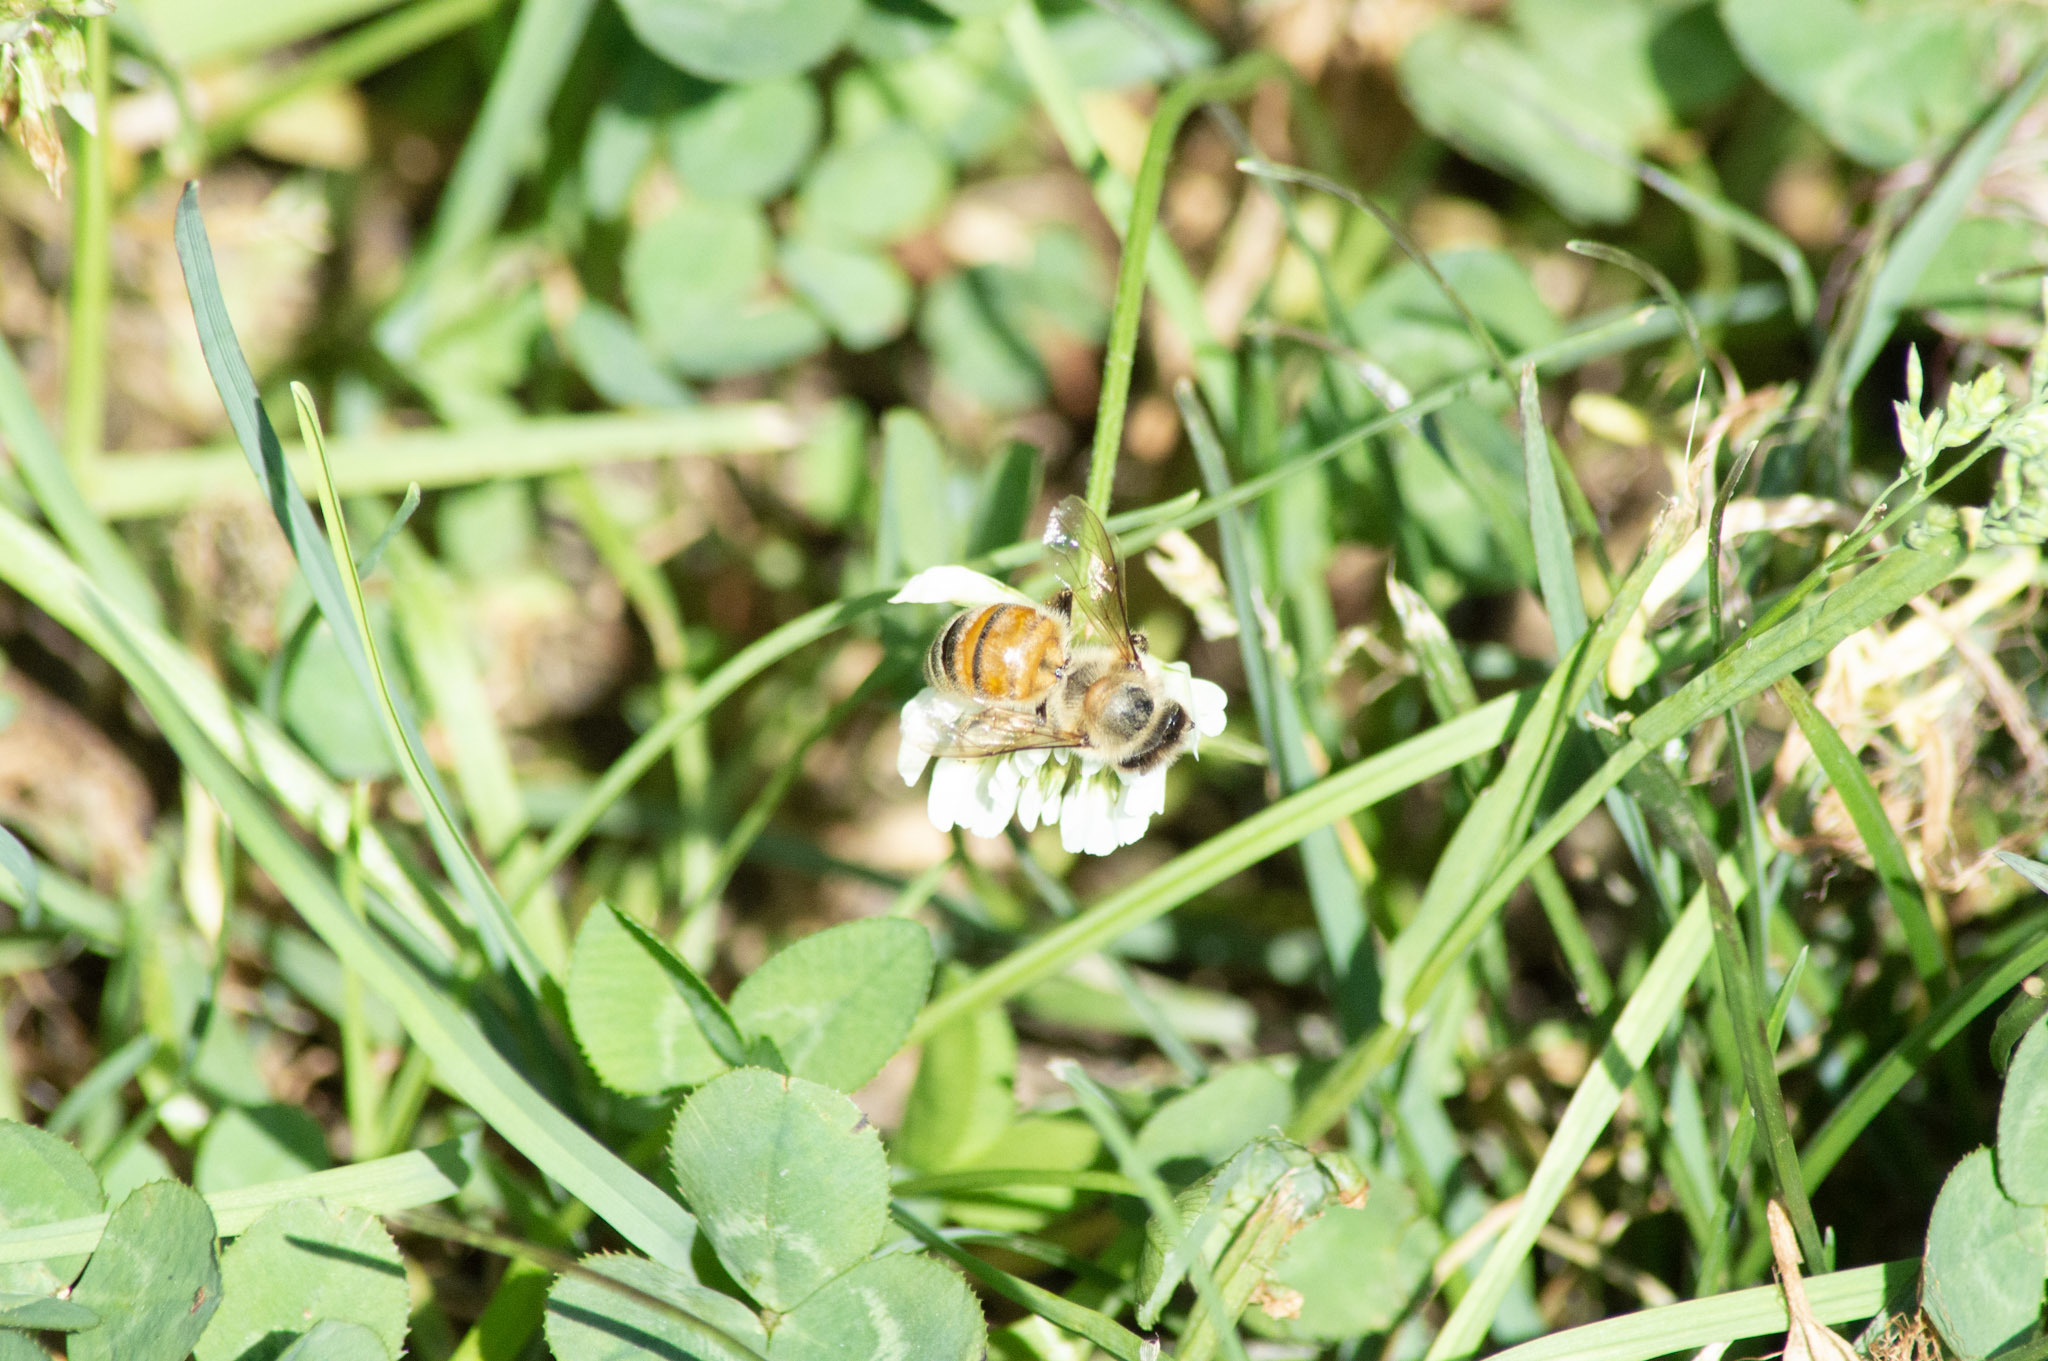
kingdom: Animalia
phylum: Arthropoda
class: Insecta
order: Hymenoptera
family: Apidae
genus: Apis
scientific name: Apis mellifera
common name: Honey bee
